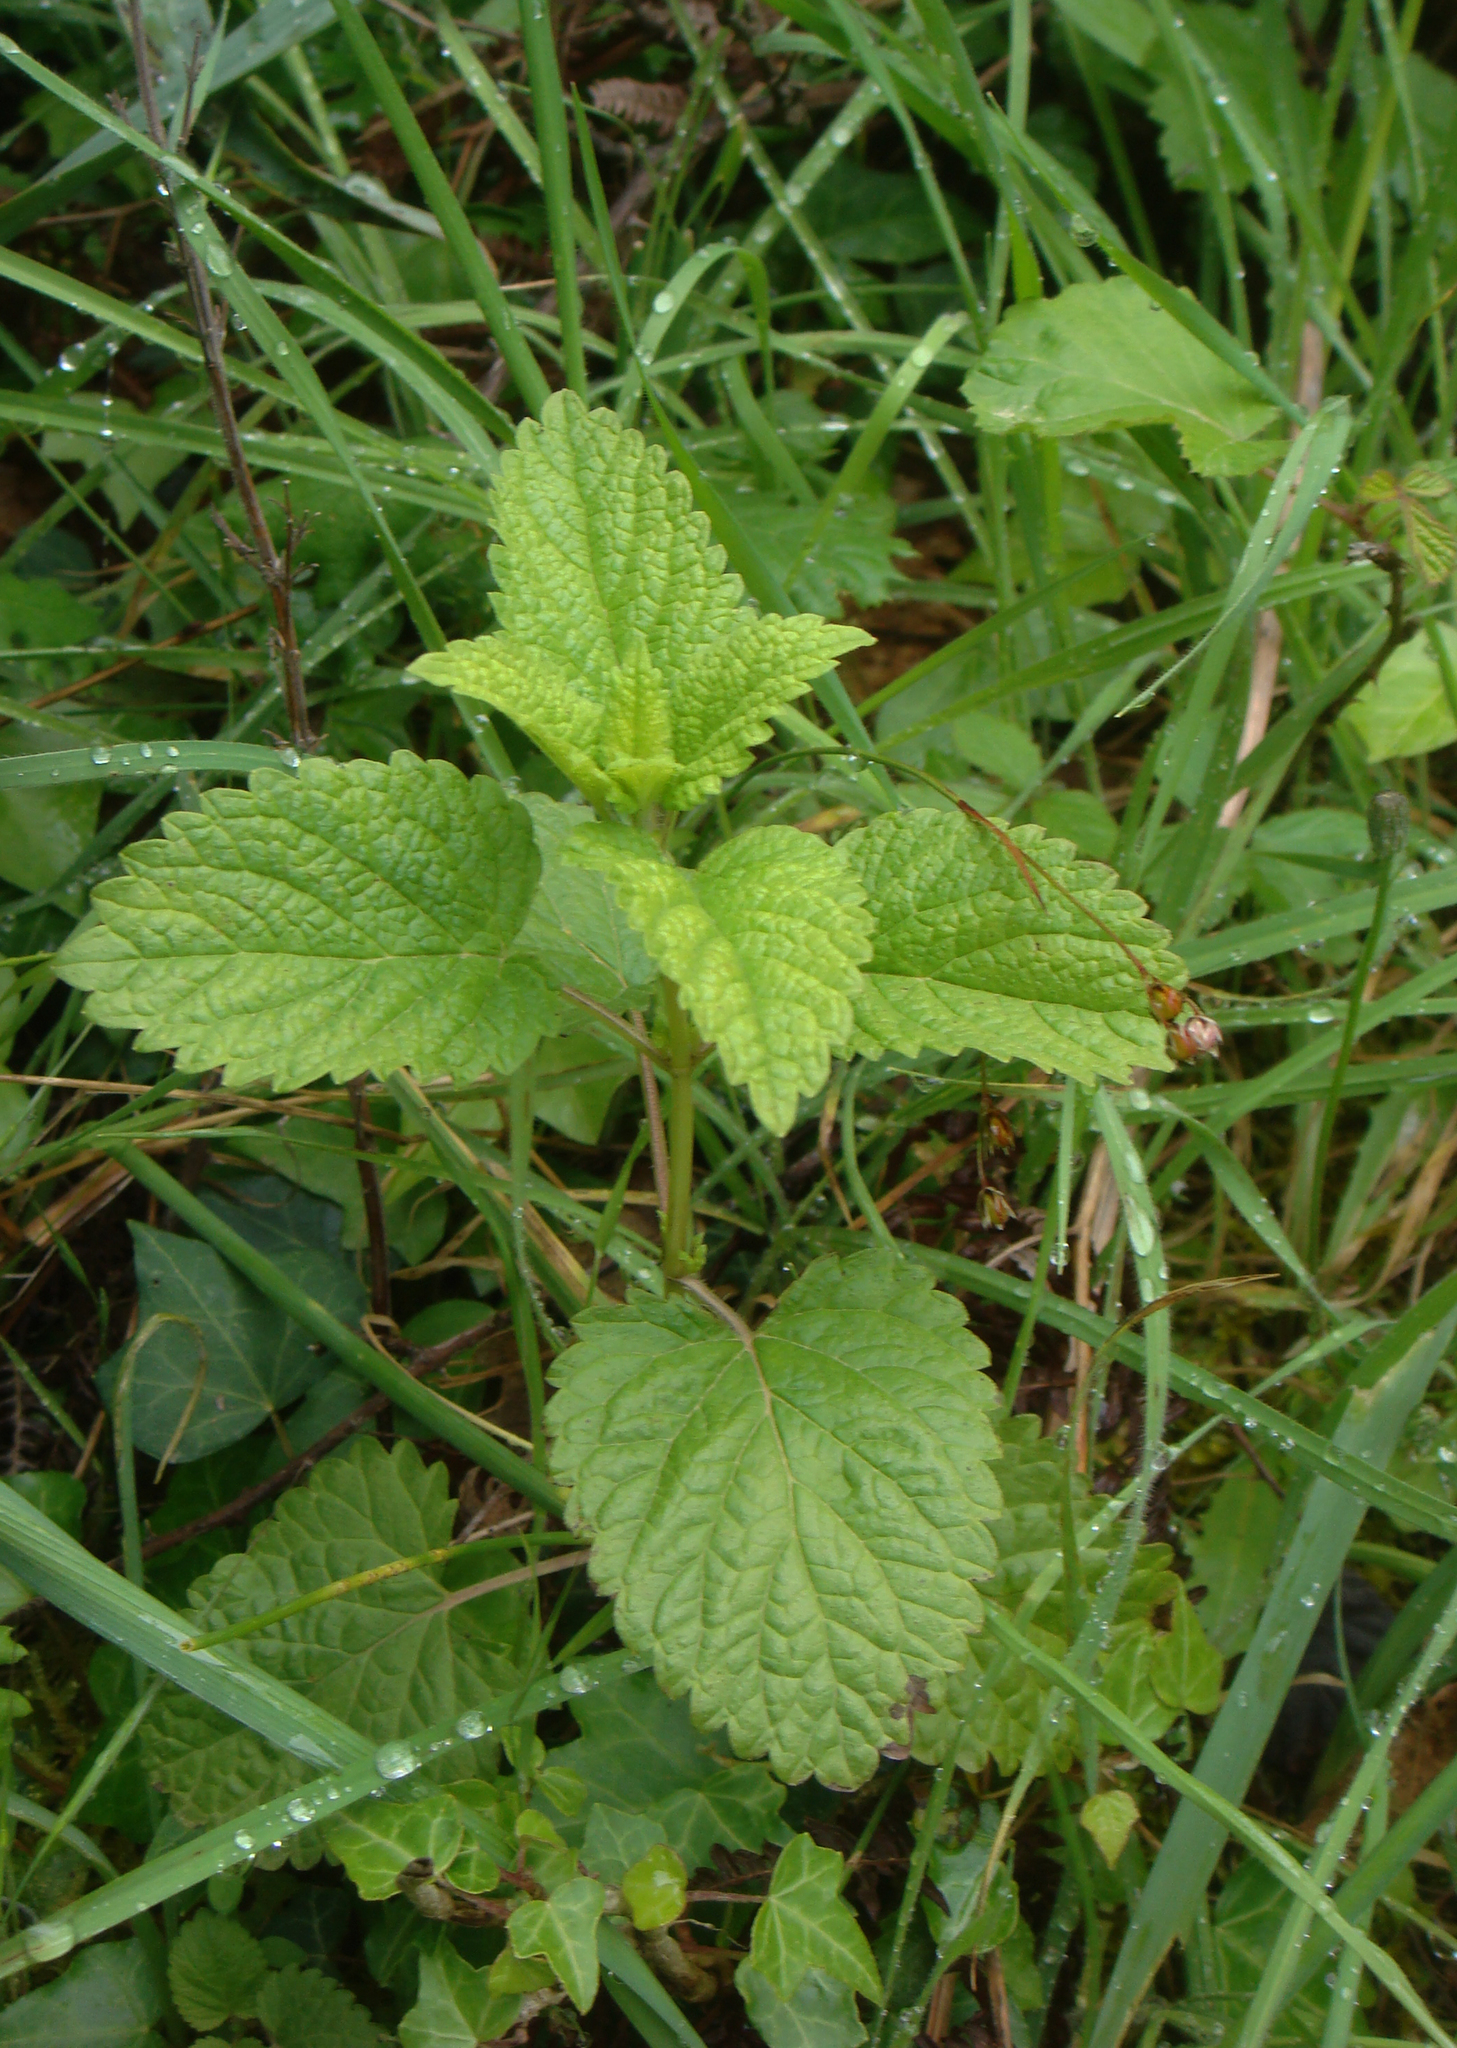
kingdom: Plantae
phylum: Tracheophyta
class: Magnoliopsida
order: Lamiales
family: Lamiaceae
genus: Melissa
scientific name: Melissa officinalis
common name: Balm
